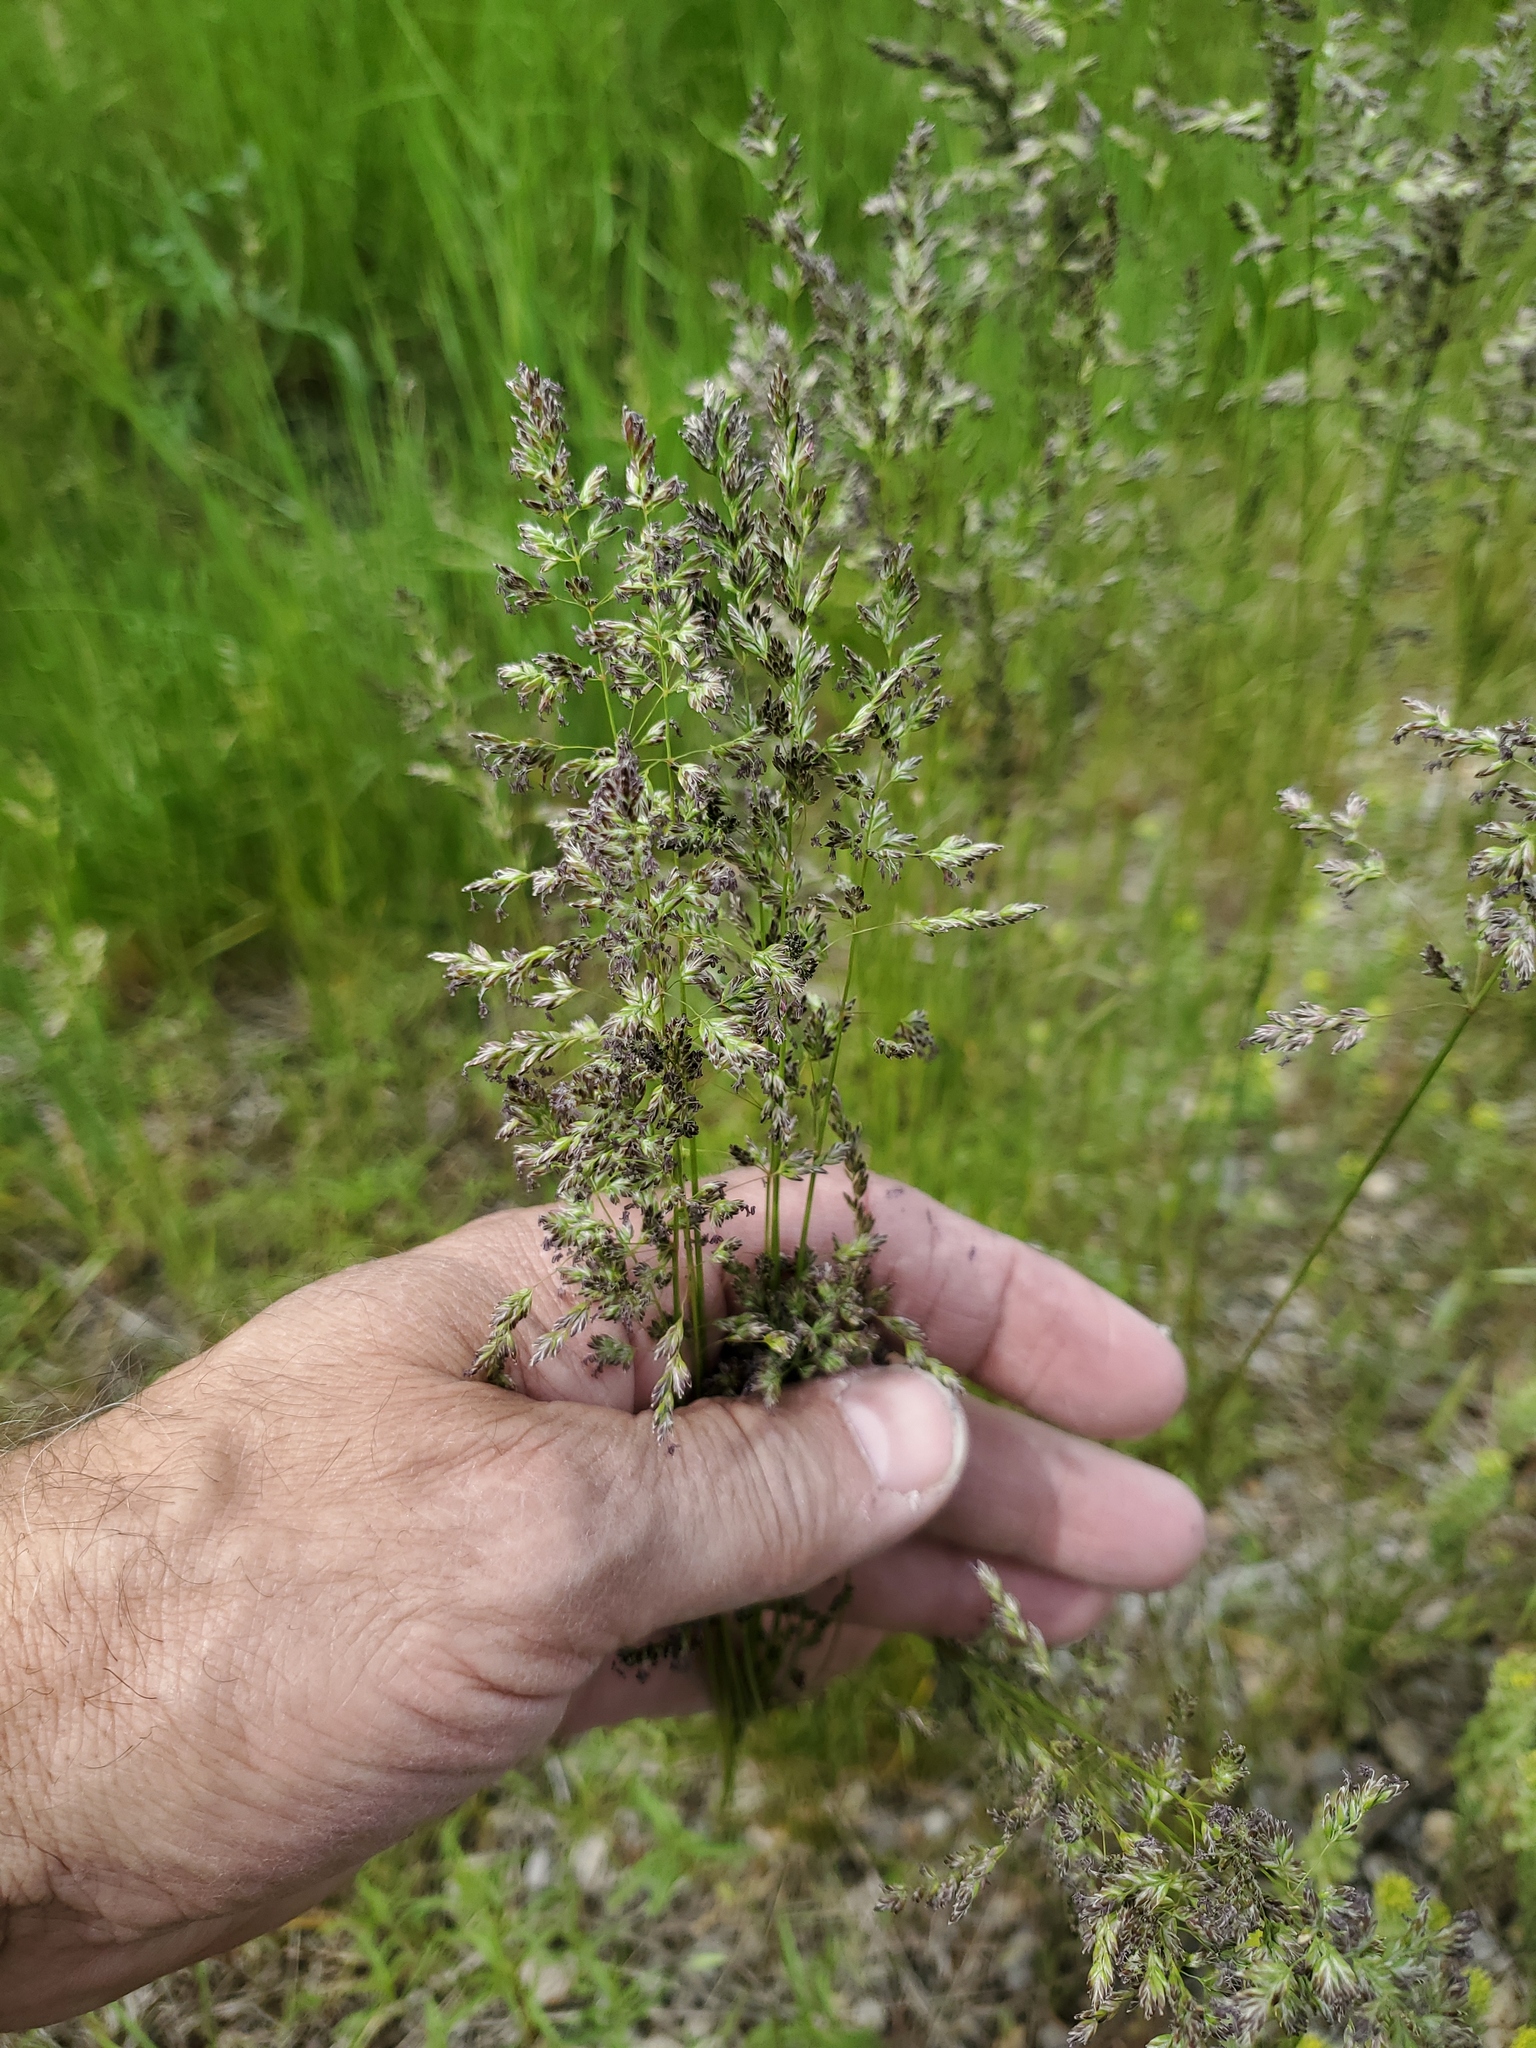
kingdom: Plantae
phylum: Tracheophyta
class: Liliopsida
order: Poales
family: Poaceae
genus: Poa
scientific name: Poa pratensis
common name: Kentucky bluegrass
